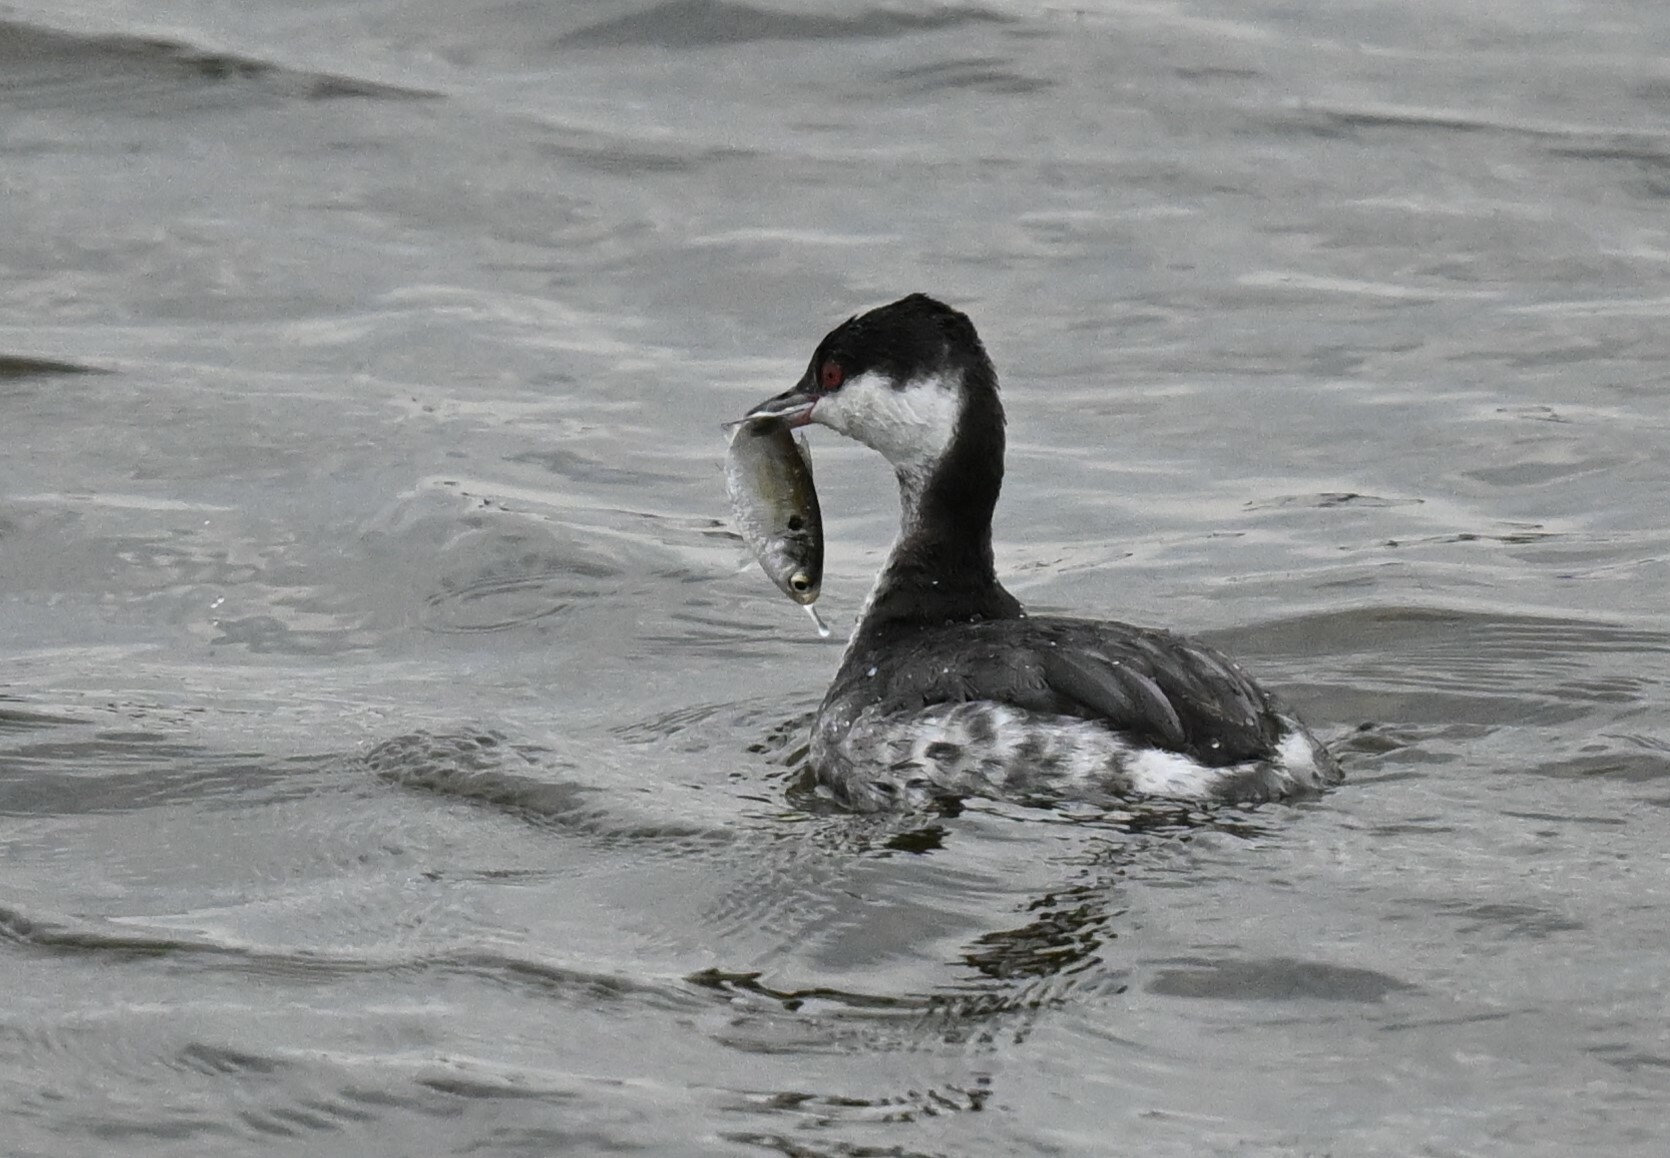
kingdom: Animalia
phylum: Chordata
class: Aves
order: Podicipediformes
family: Podicipedidae
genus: Podiceps
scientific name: Podiceps auritus
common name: Horned grebe
